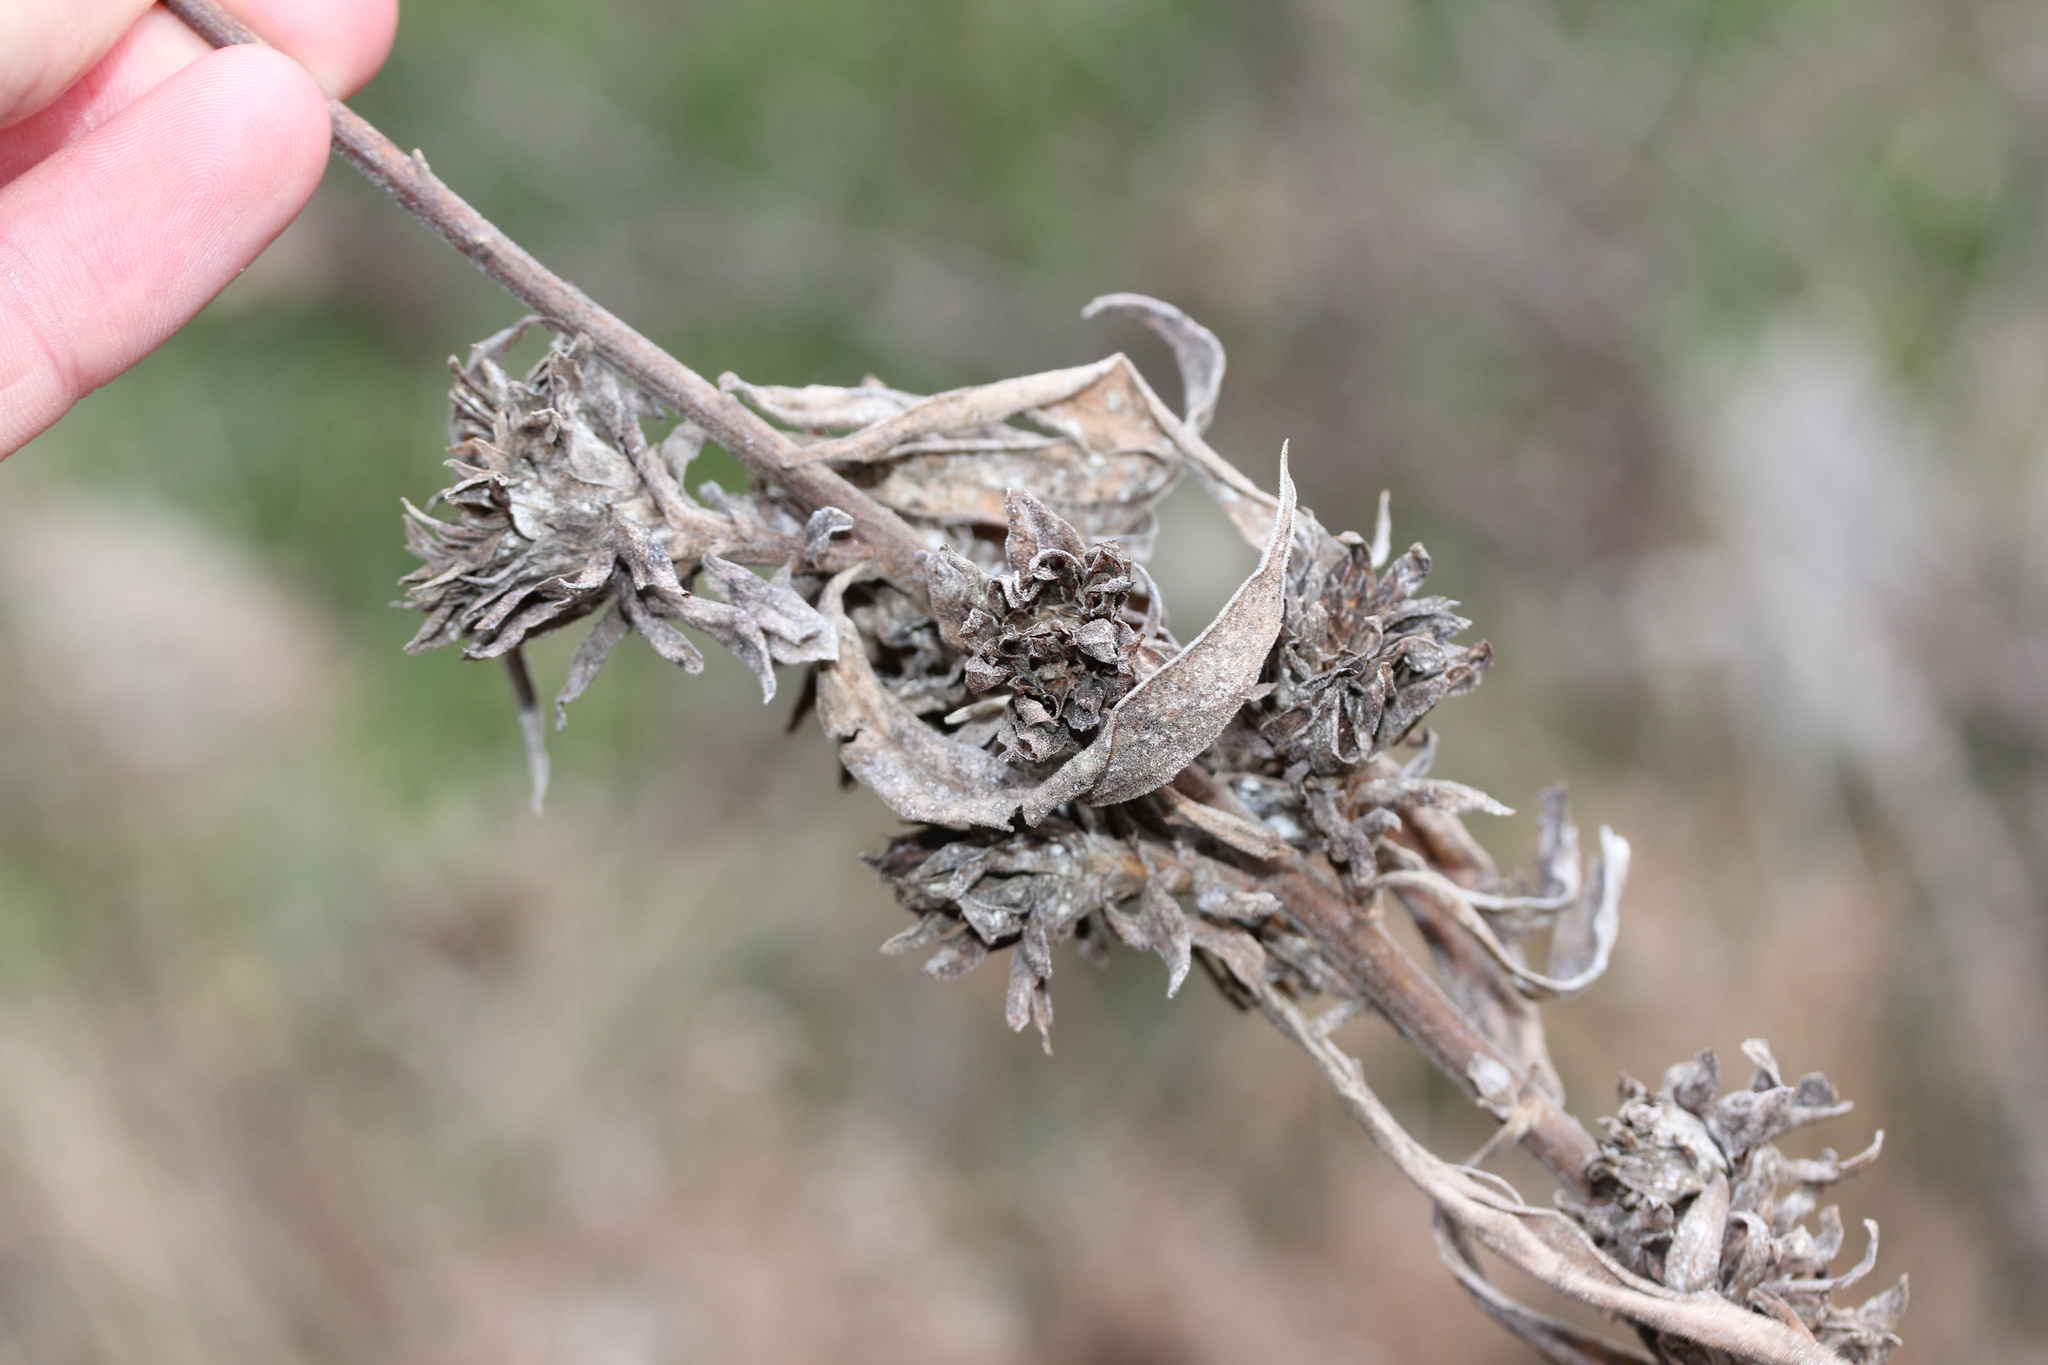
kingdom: Animalia
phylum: Arthropoda
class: Insecta
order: Diptera
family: Tephritidae
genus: Procecidochares
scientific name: Procecidochares atra
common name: Goldenrod brussels sprout gall fly
